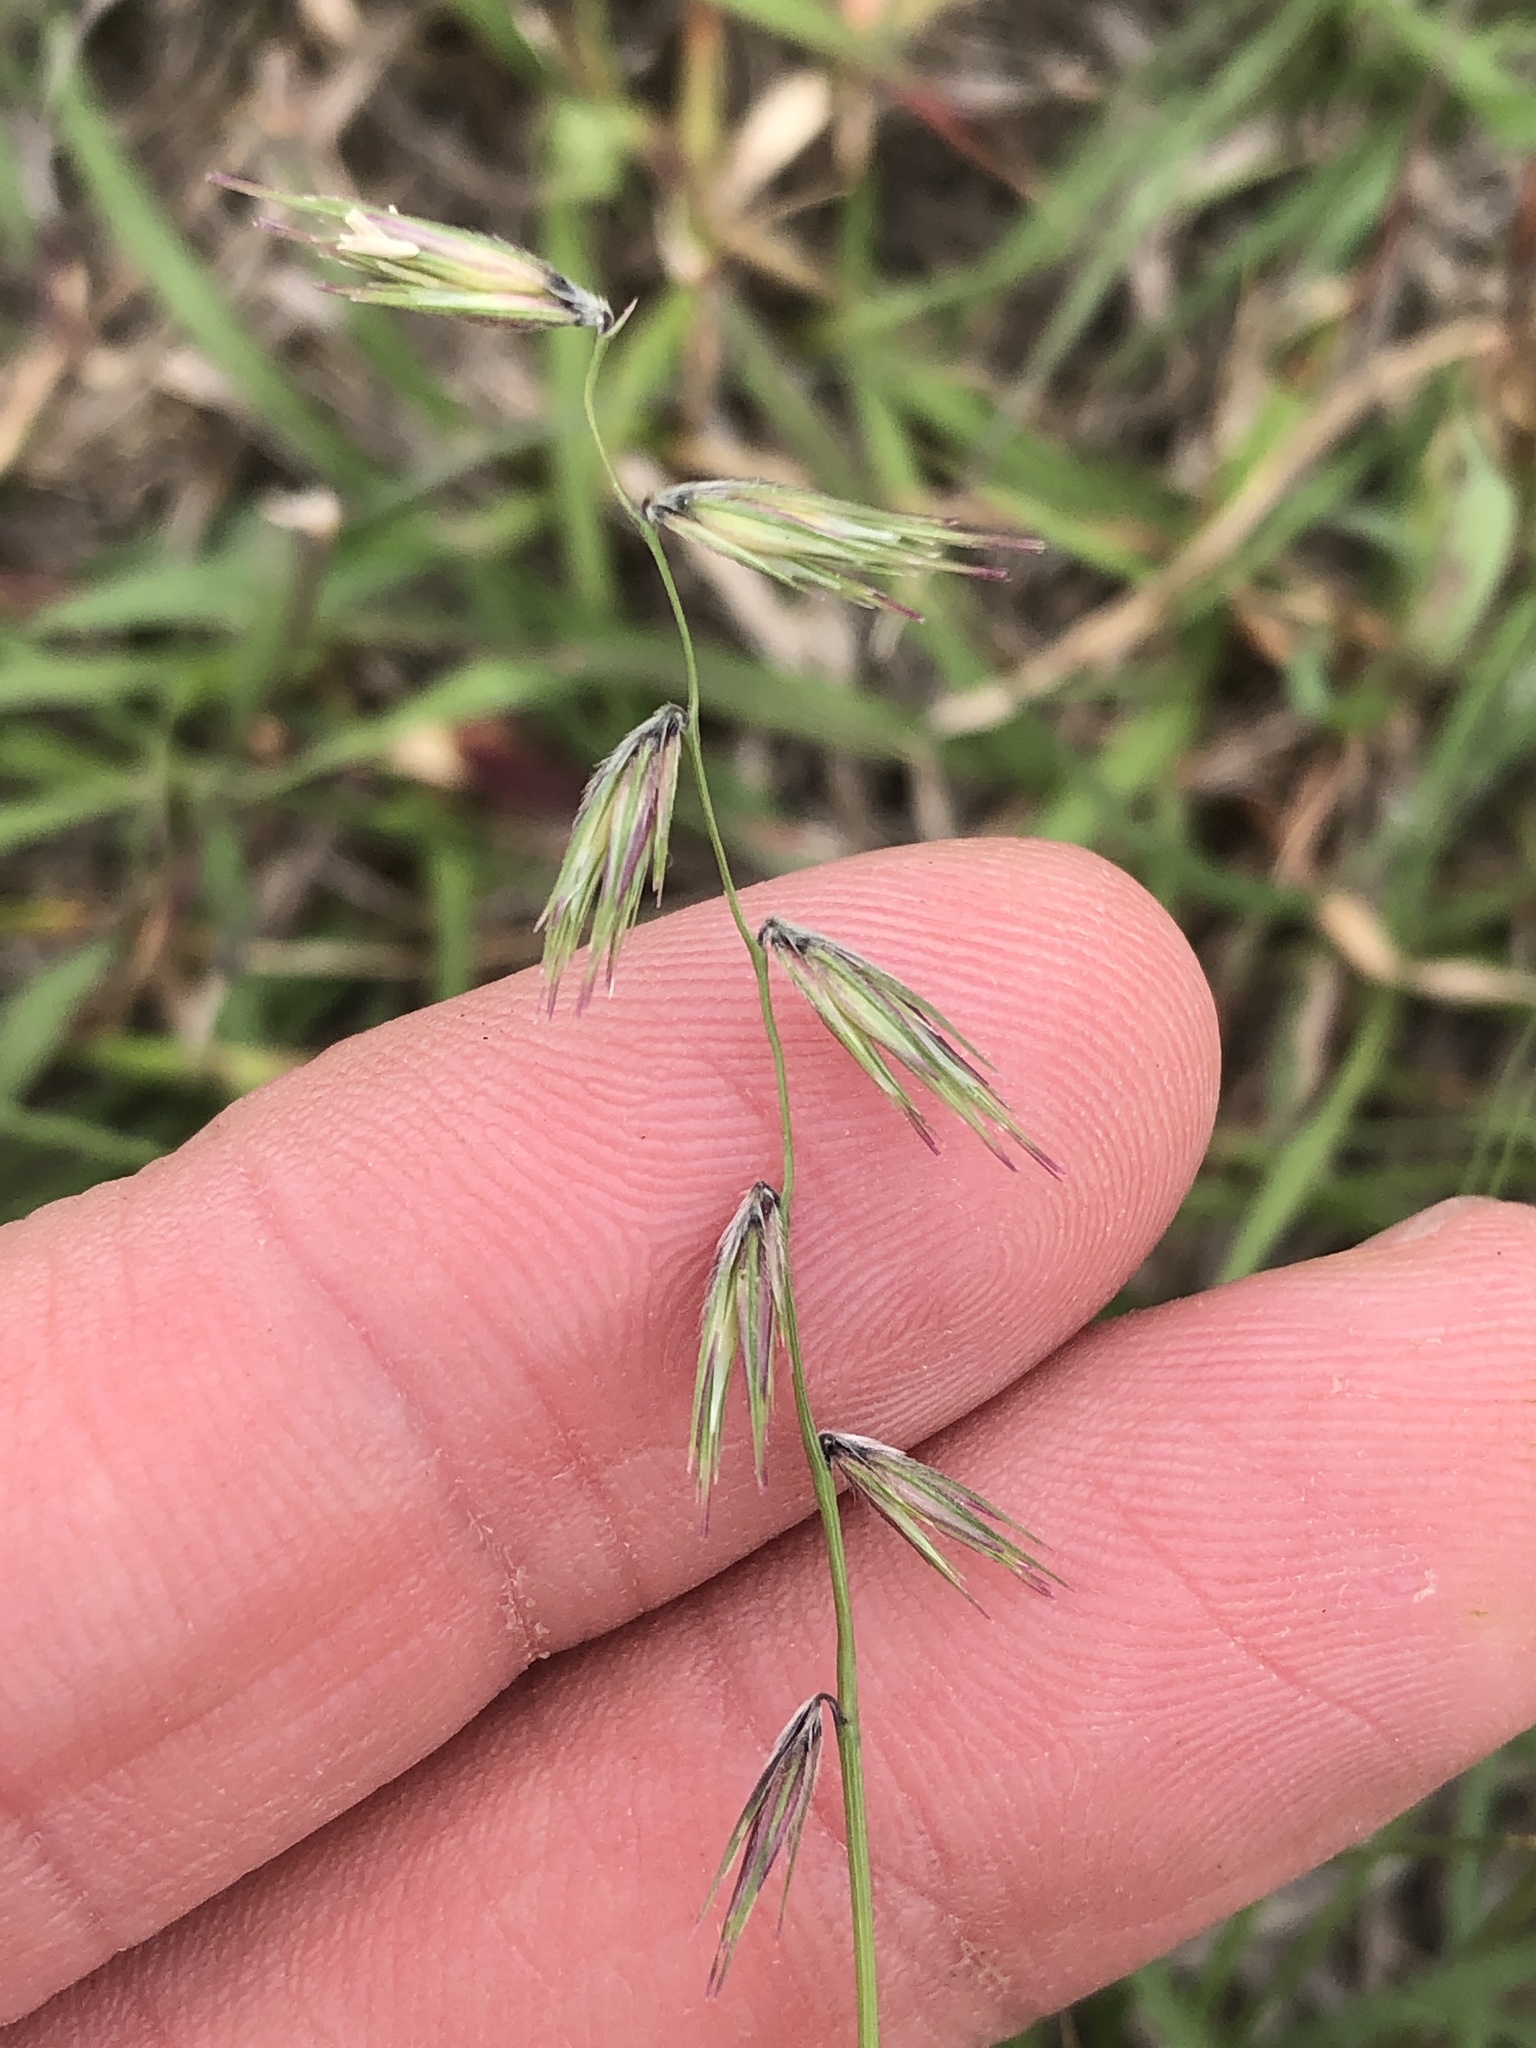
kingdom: Plantae
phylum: Tracheophyta
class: Liliopsida
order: Poales
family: Poaceae
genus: Bouteloua
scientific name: Bouteloua rigidiseta
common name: Texas grama
